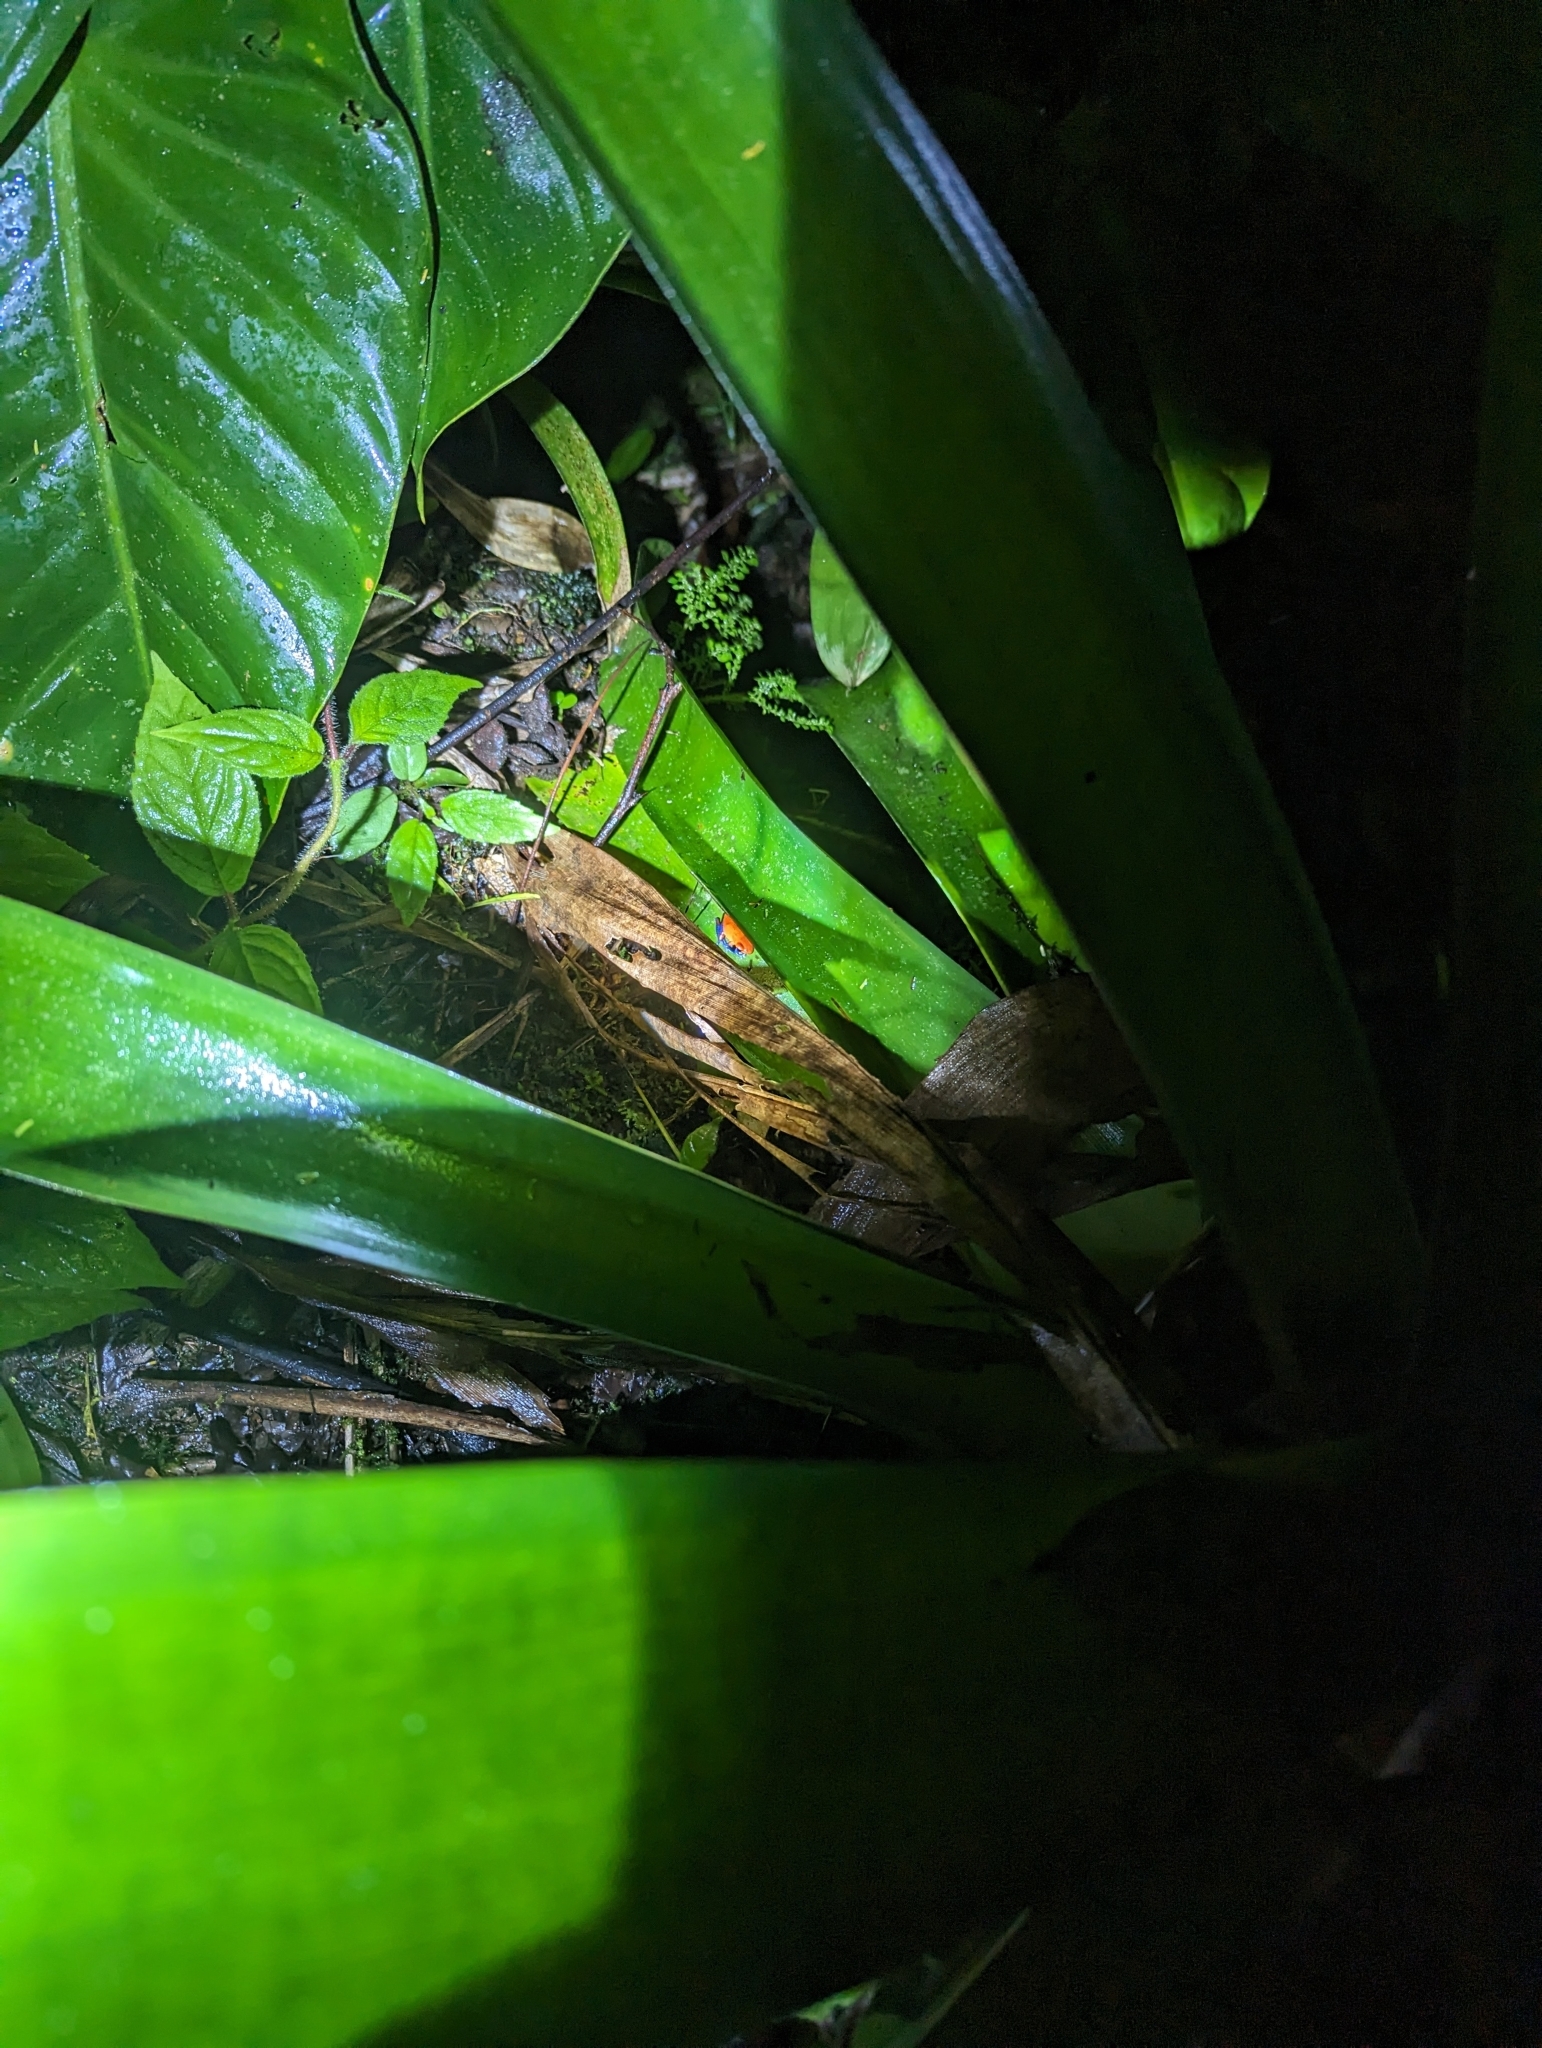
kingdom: Animalia
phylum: Chordata
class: Amphibia
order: Anura
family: Dendrobatidae
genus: Oophaga
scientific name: Oophaga pumilio
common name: Flaming poison frog
